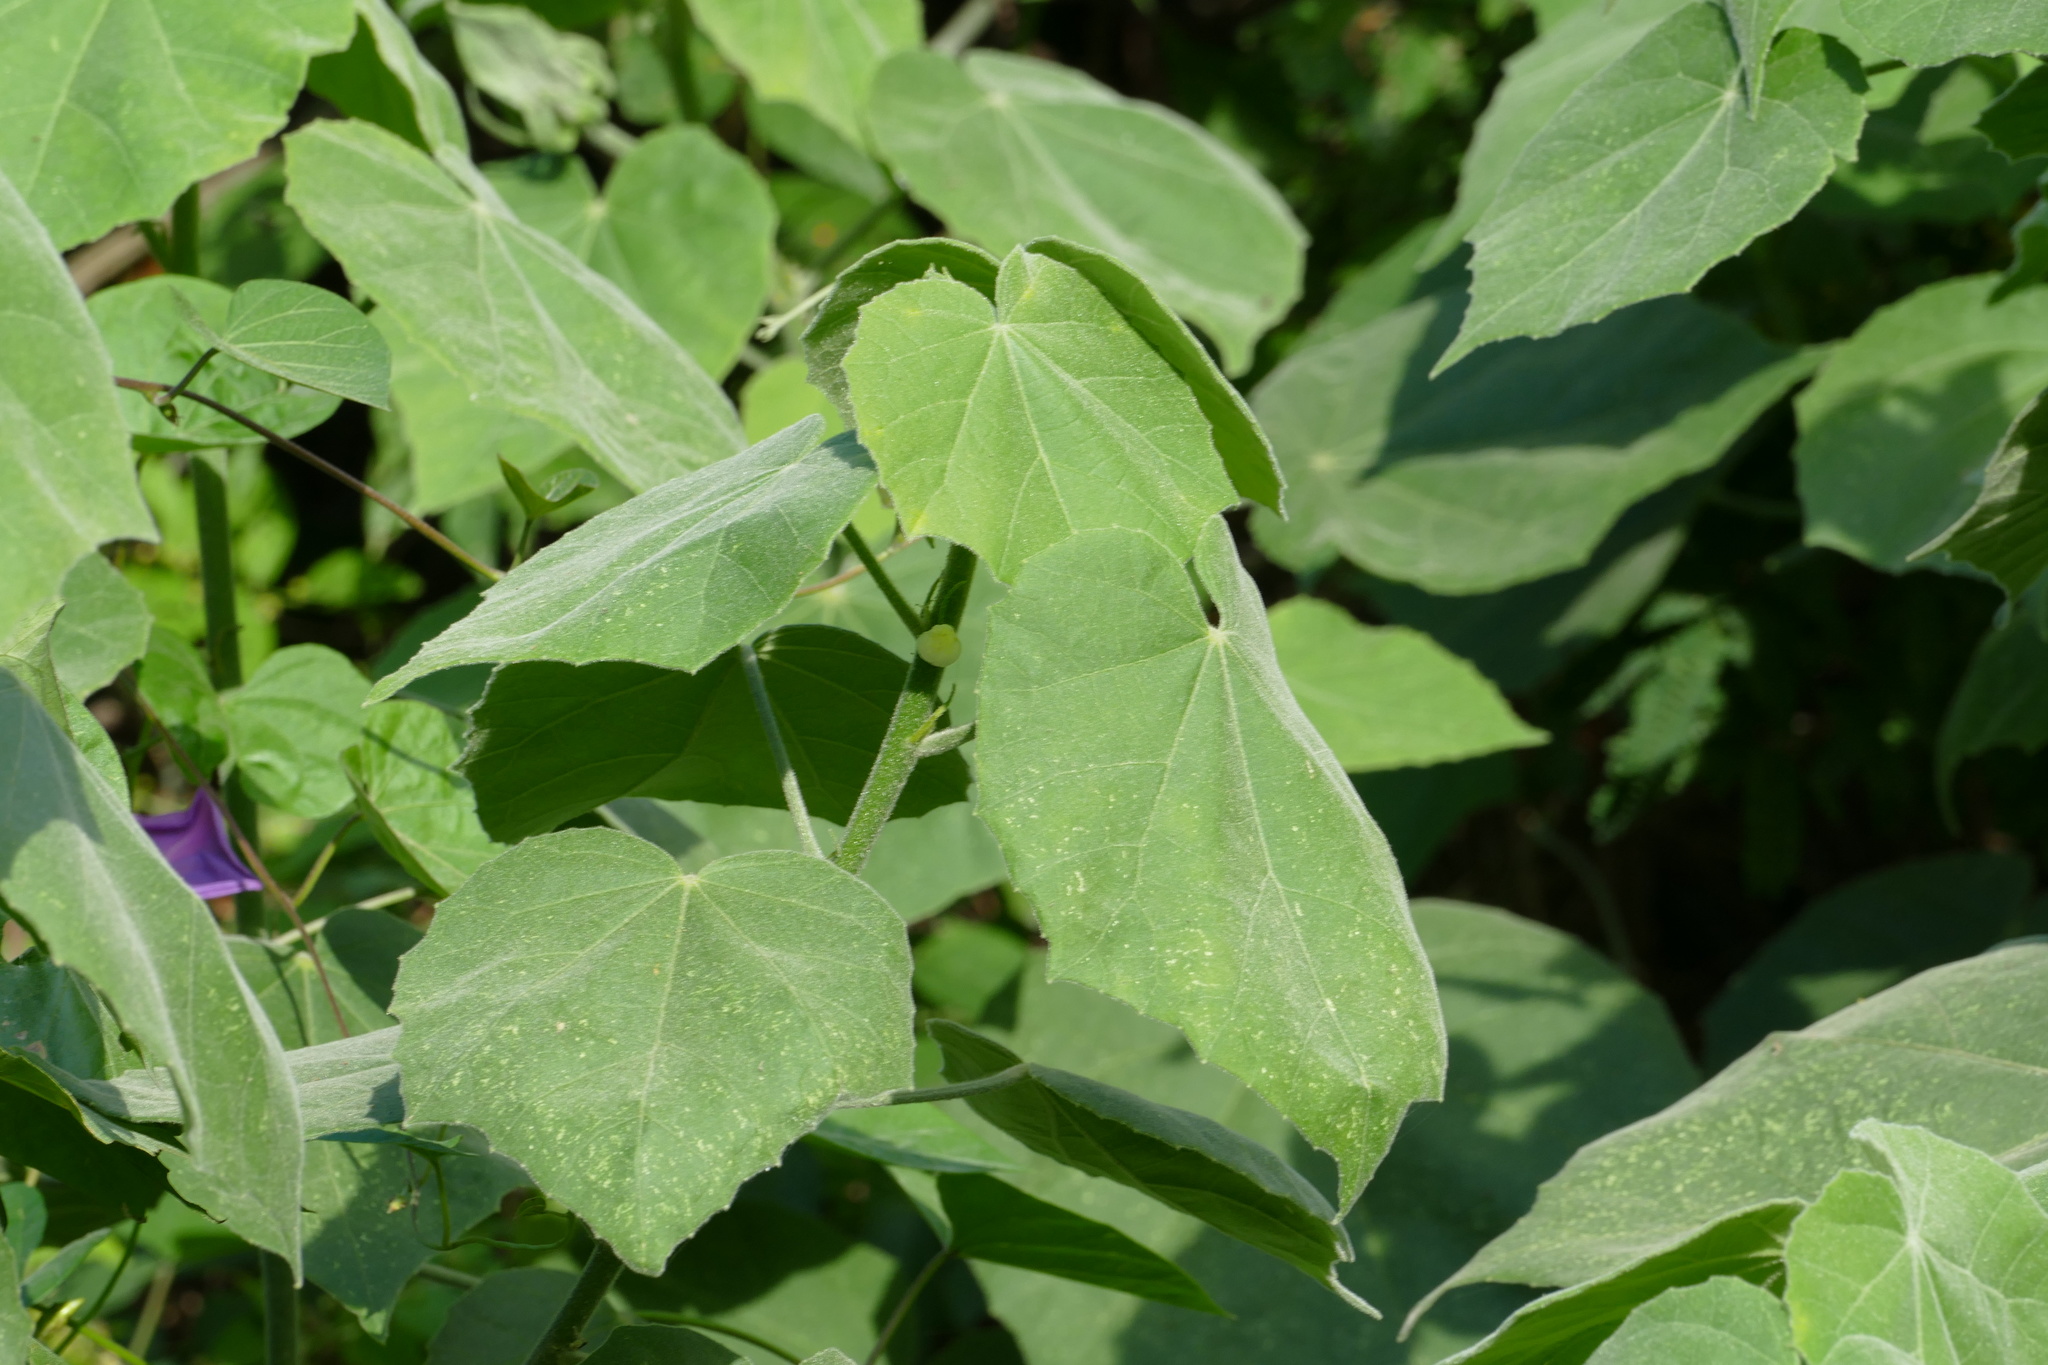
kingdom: Plantae
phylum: Tracheophyta
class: Magnoliopsida
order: Malvales
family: Malvaceae
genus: Hibiscus
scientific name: Hibiscus clypeatus
